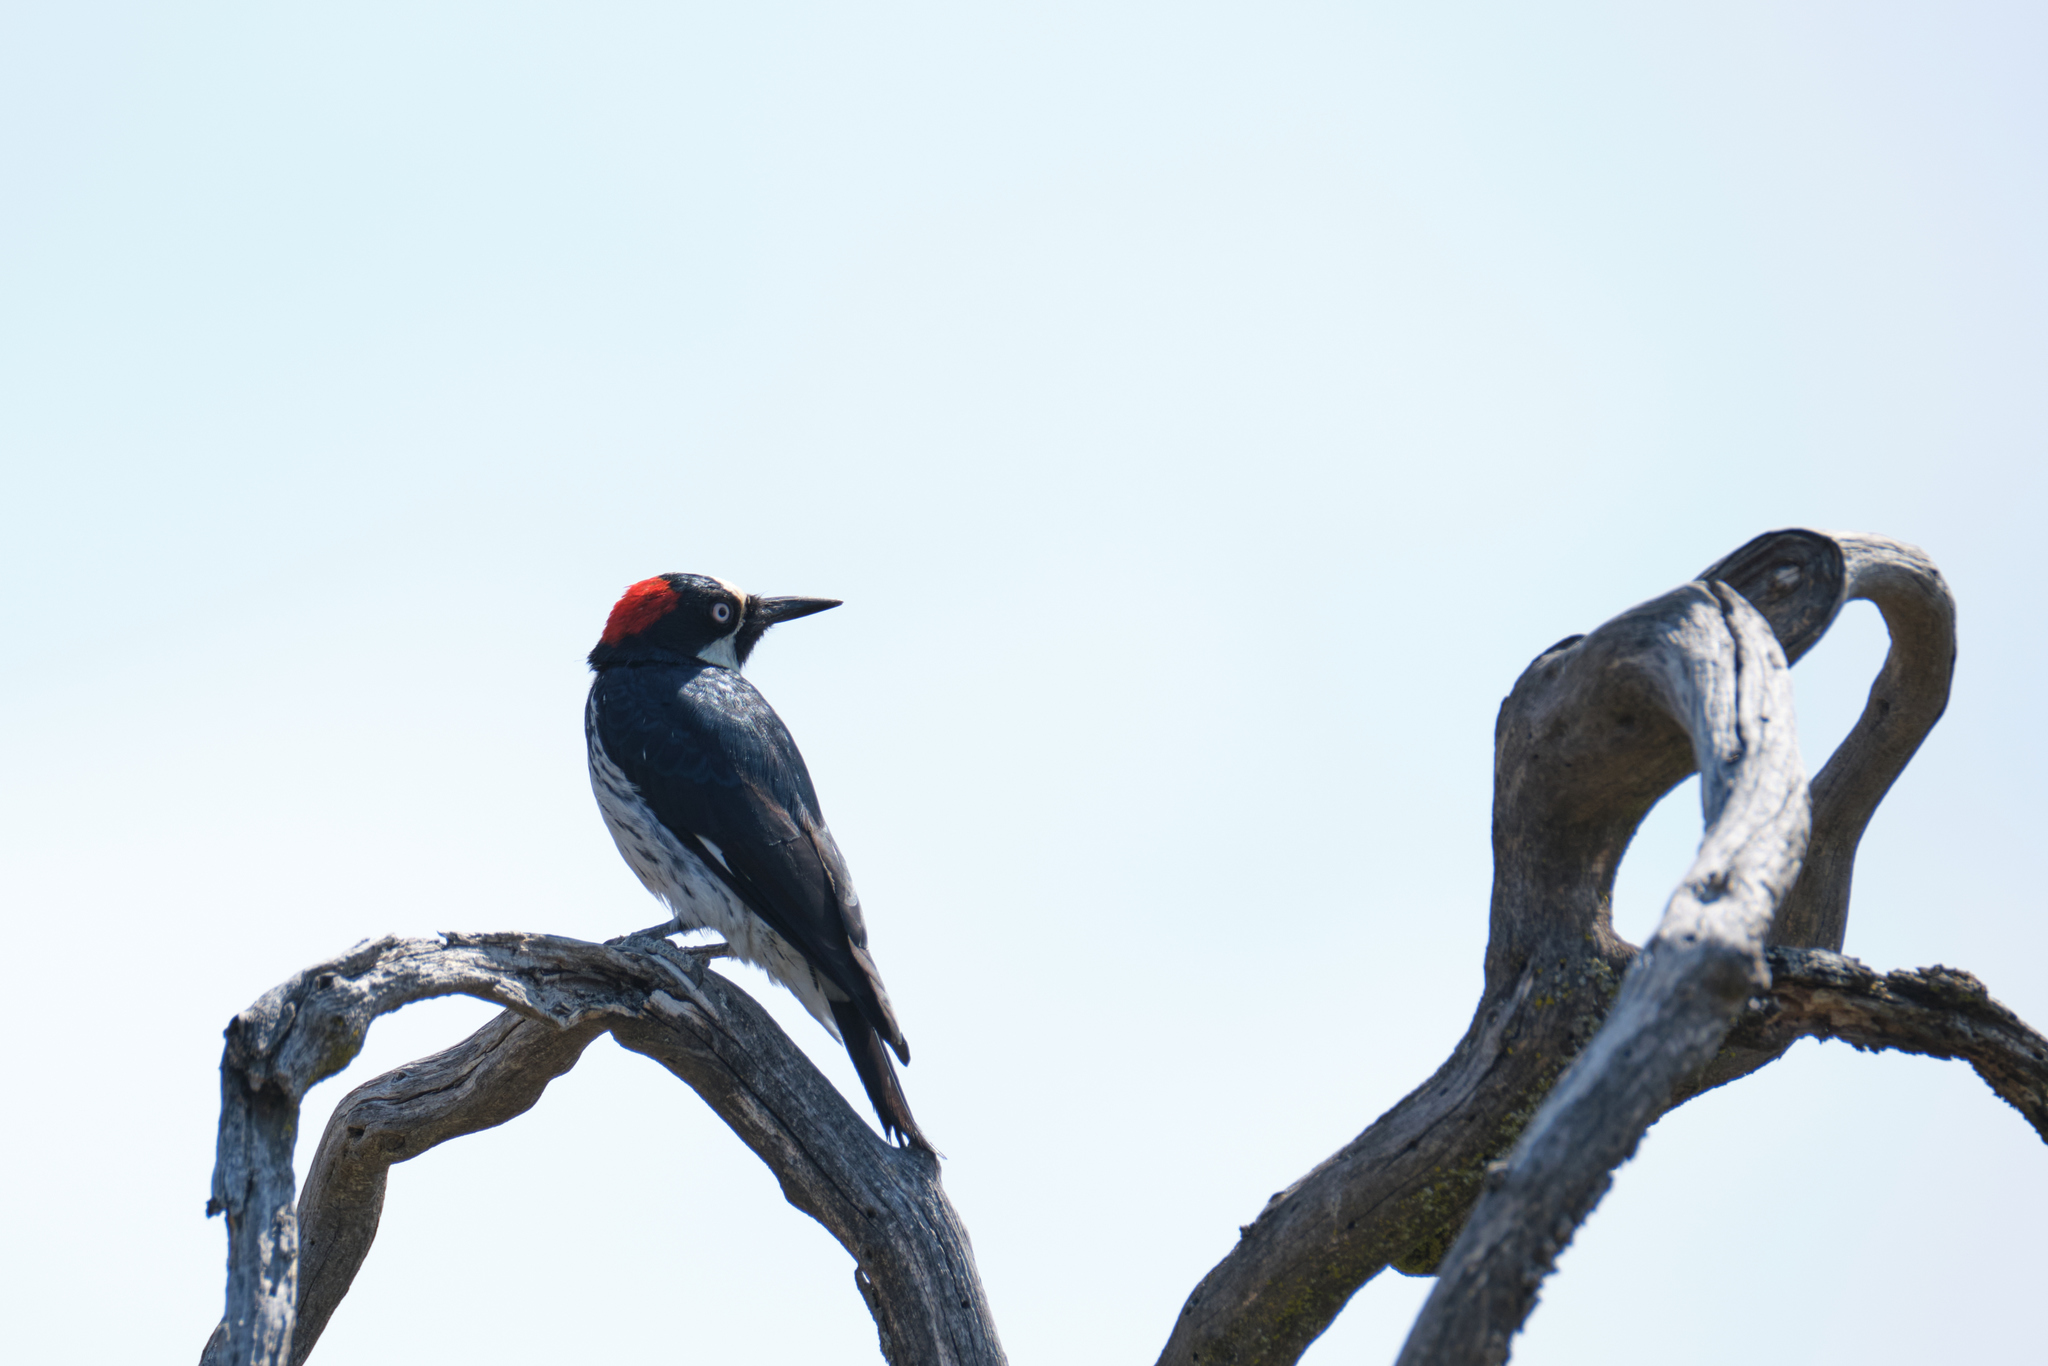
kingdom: Animalia
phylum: Chordata
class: Aves
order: Piciformes
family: Picidae
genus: Melanerpes
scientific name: Melanerpes formicivorus
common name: Acorn woodpecker
